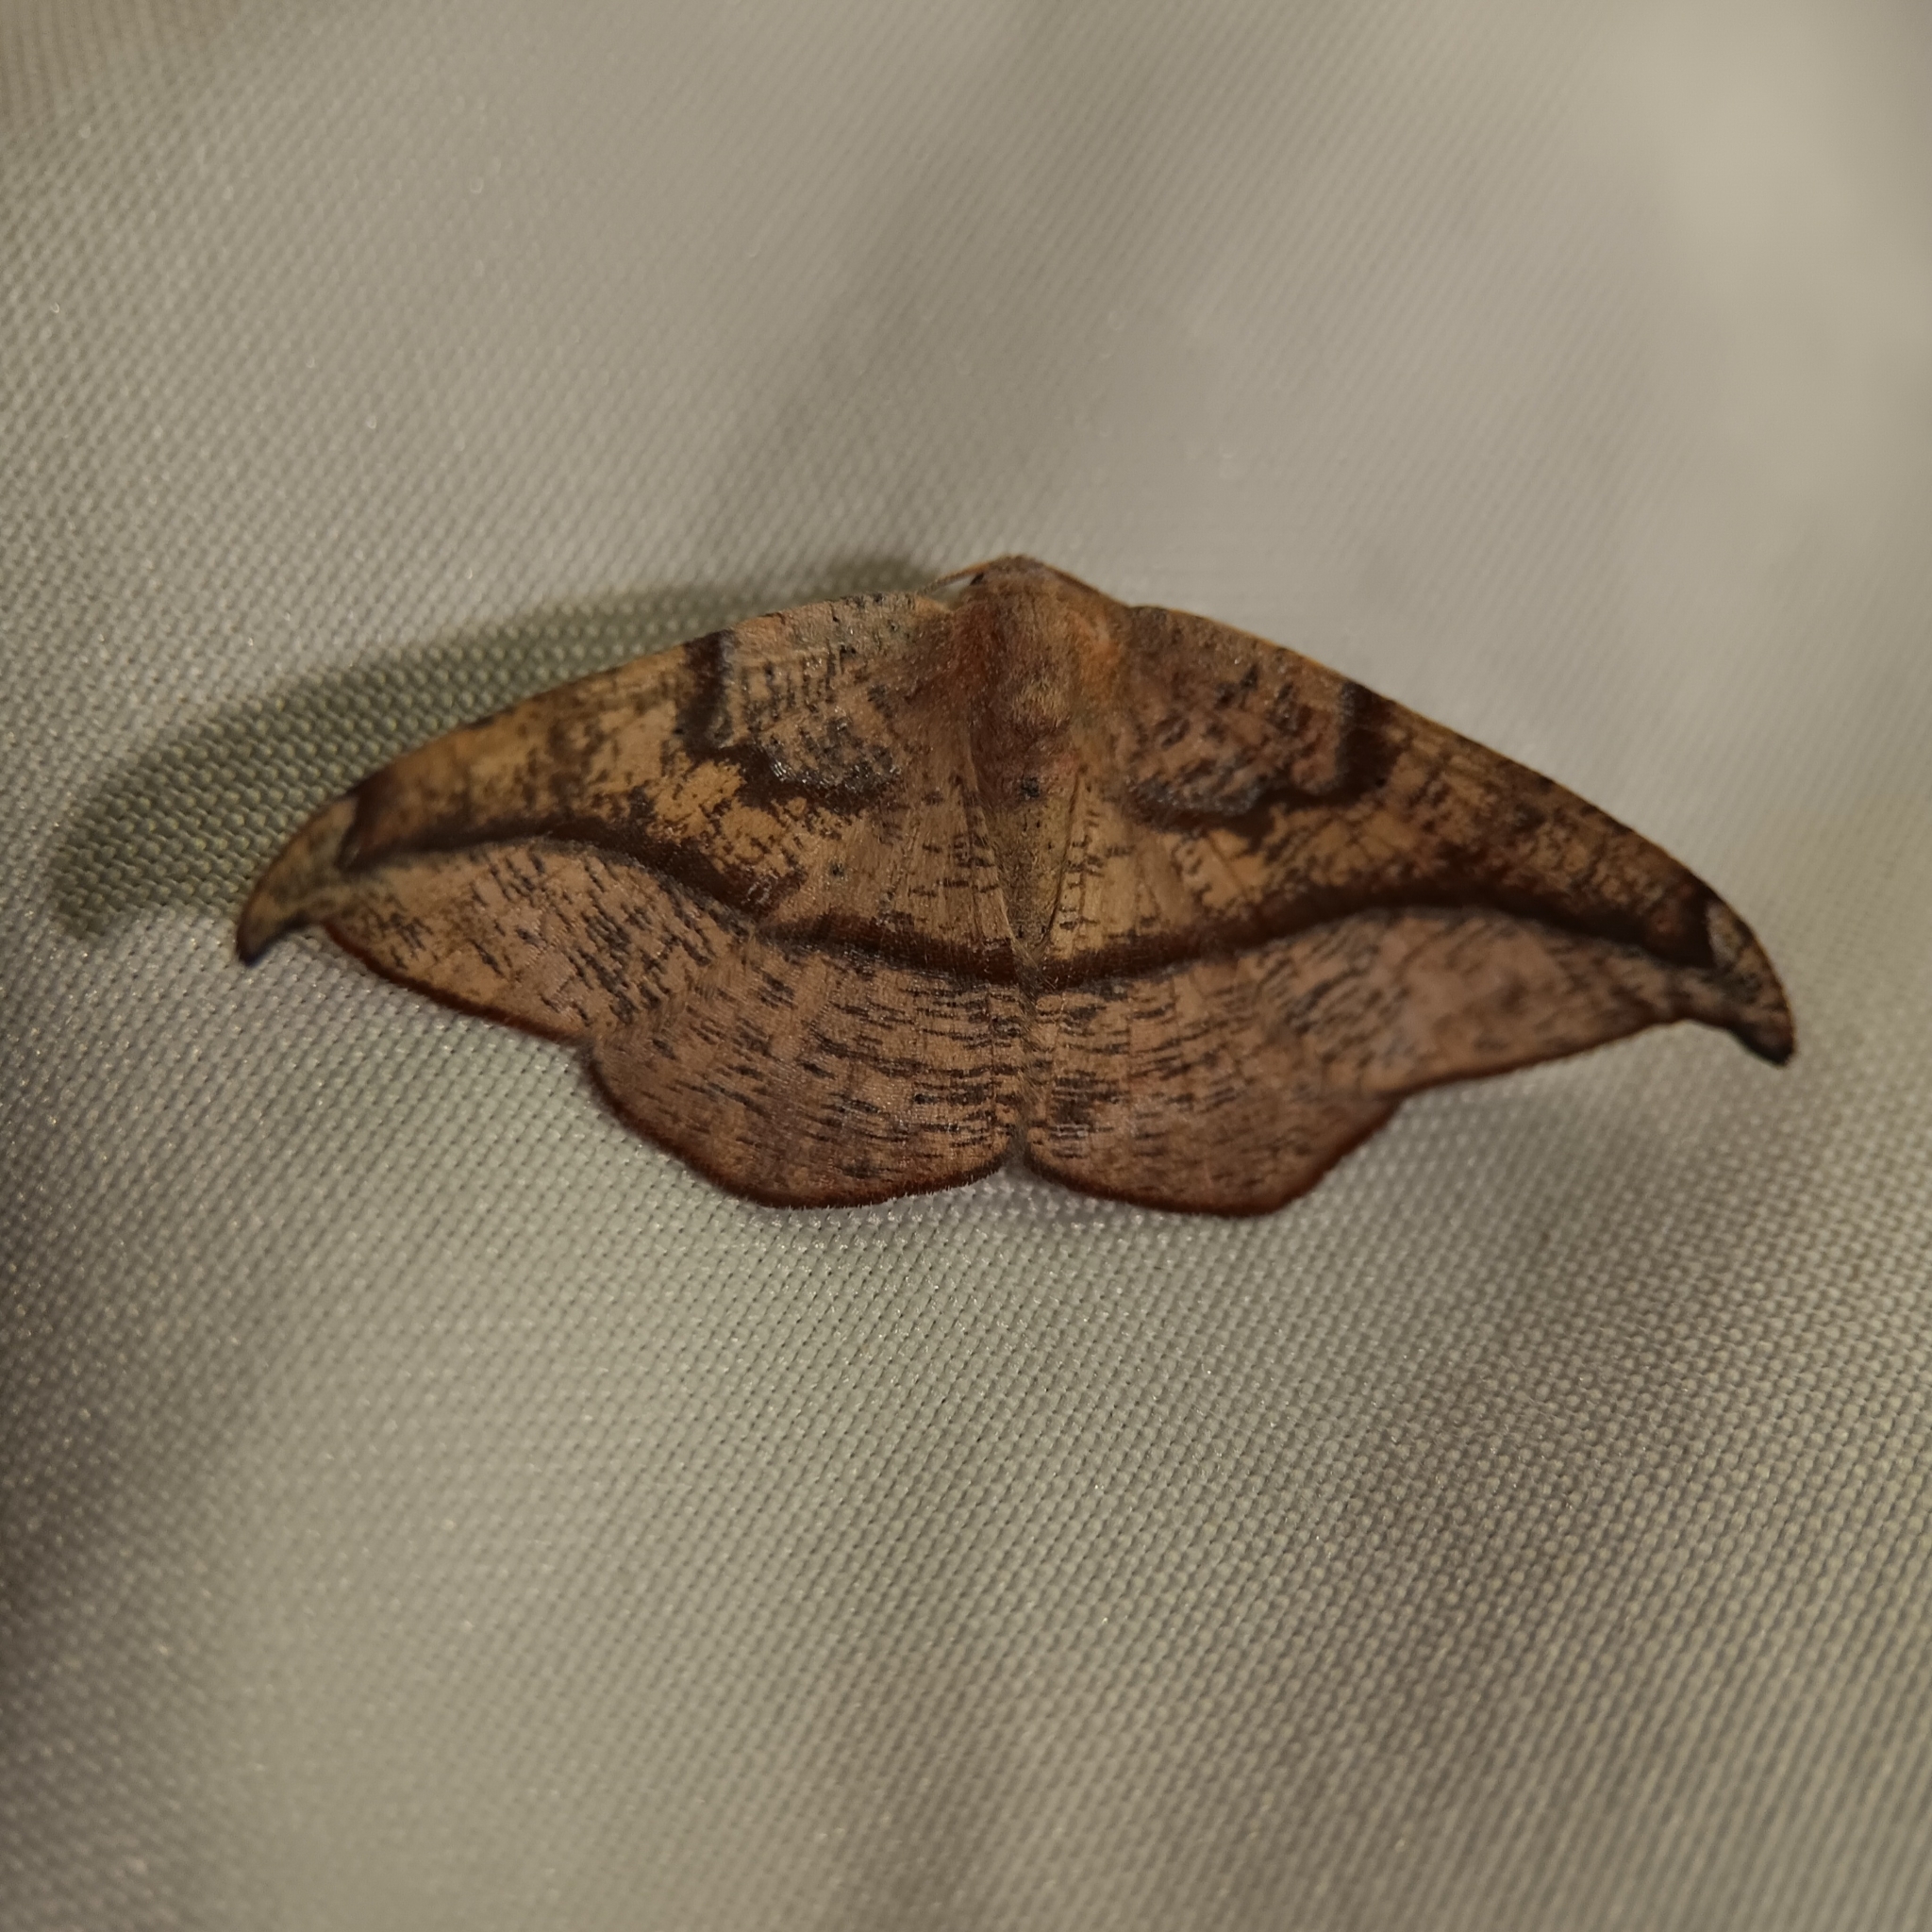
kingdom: Animalia
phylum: Arthropoda
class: Insecta
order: Lepidoptera
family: Geometridae
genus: Patalene
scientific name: Patalene olyzonaria
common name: Juniper geometer moth
